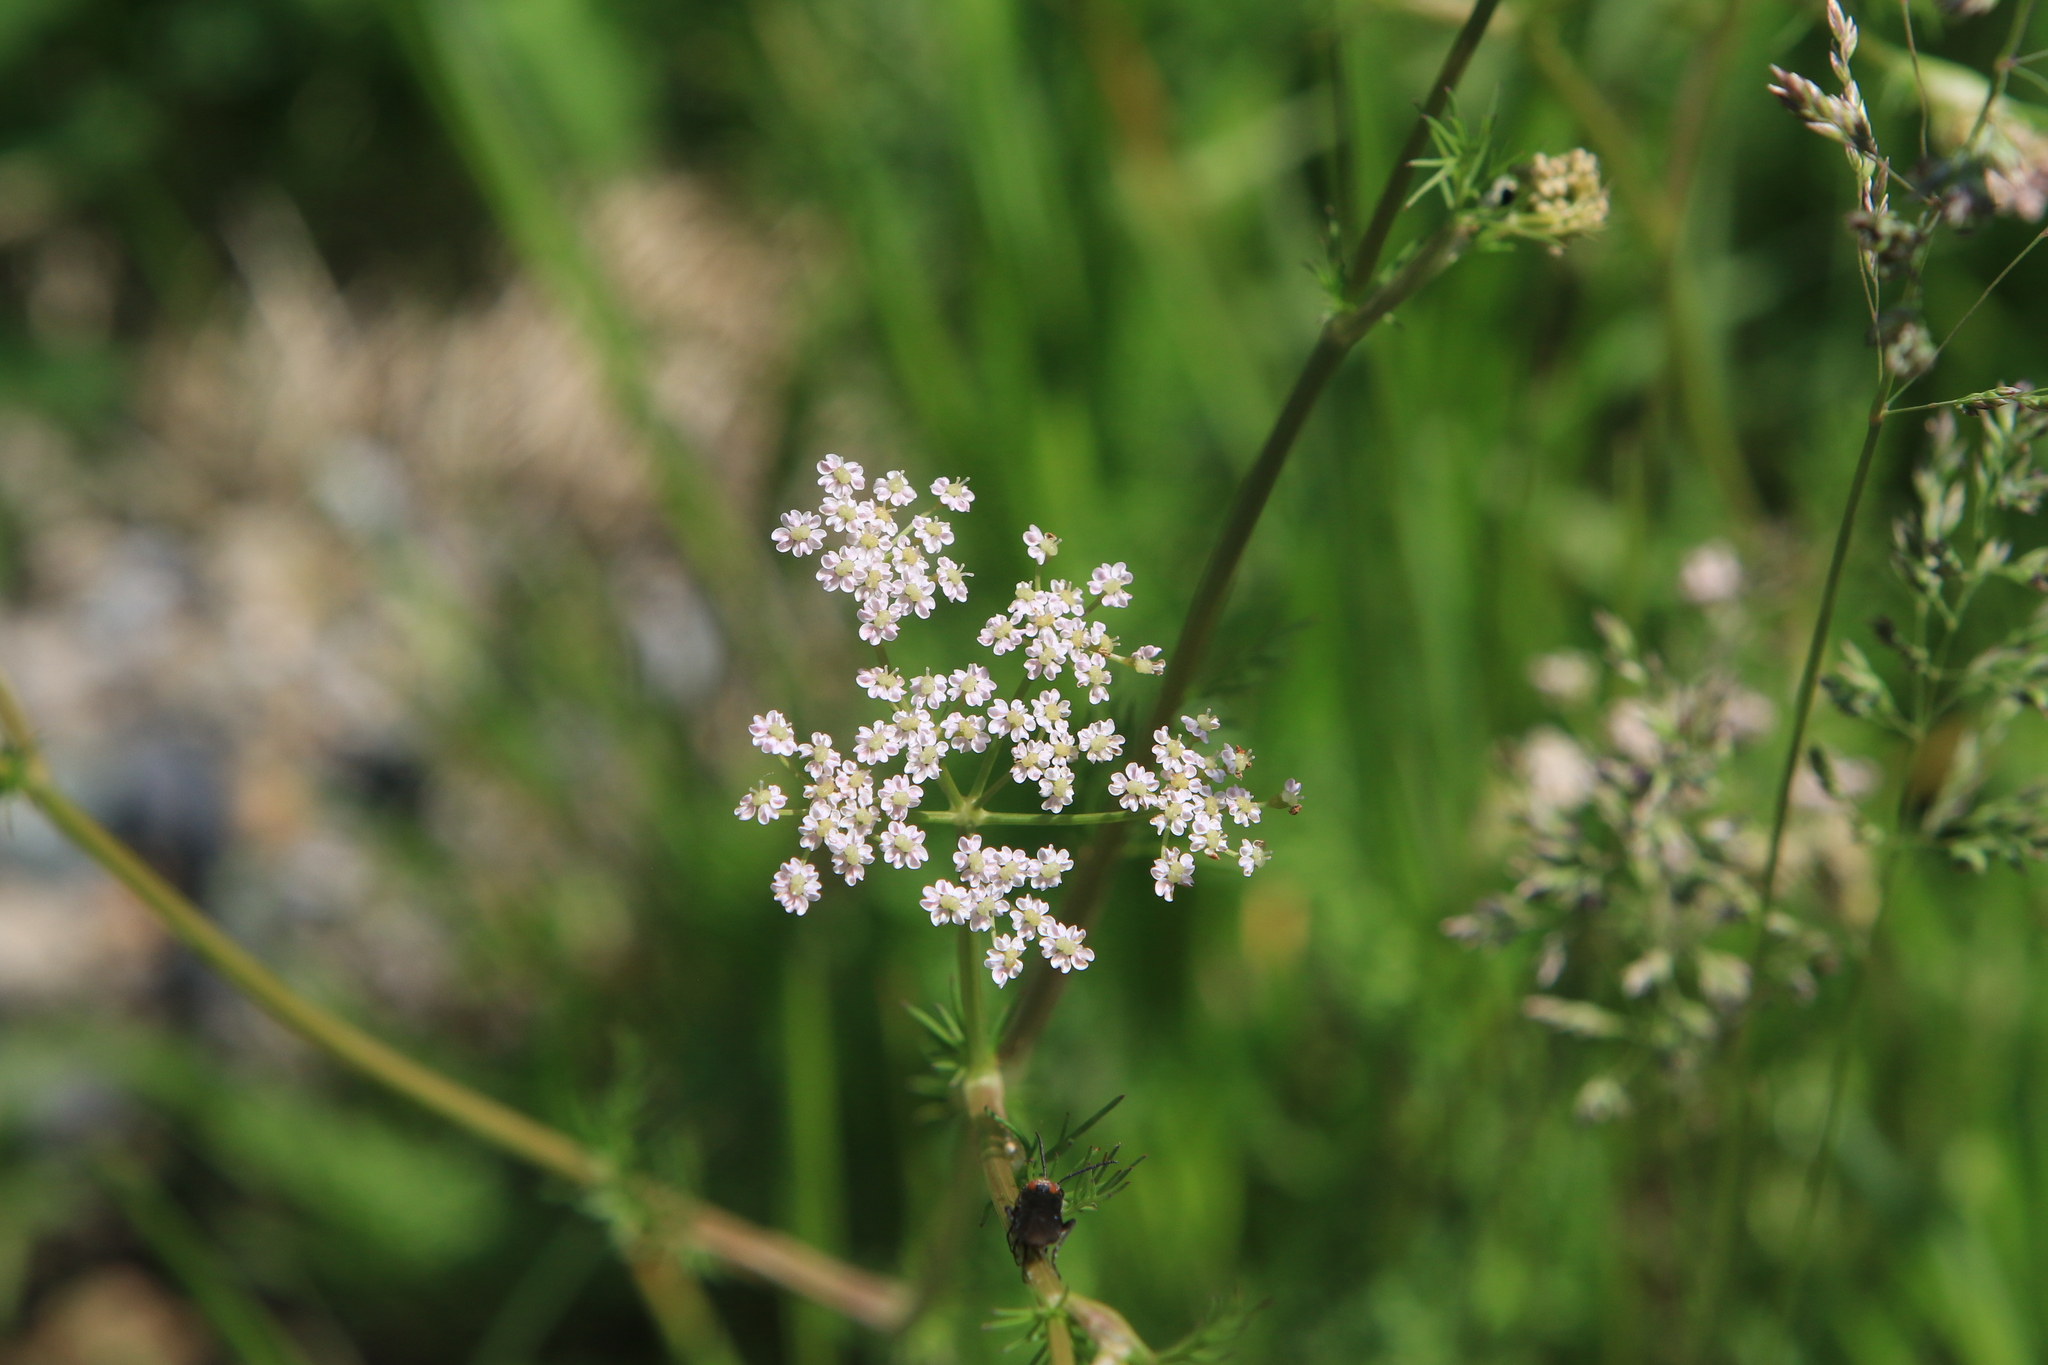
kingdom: Plantae
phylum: Tracheophyta
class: Magnoliopsida
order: Apiales
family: Apiaceae
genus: Carum
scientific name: Carum carvi
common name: Caraway
